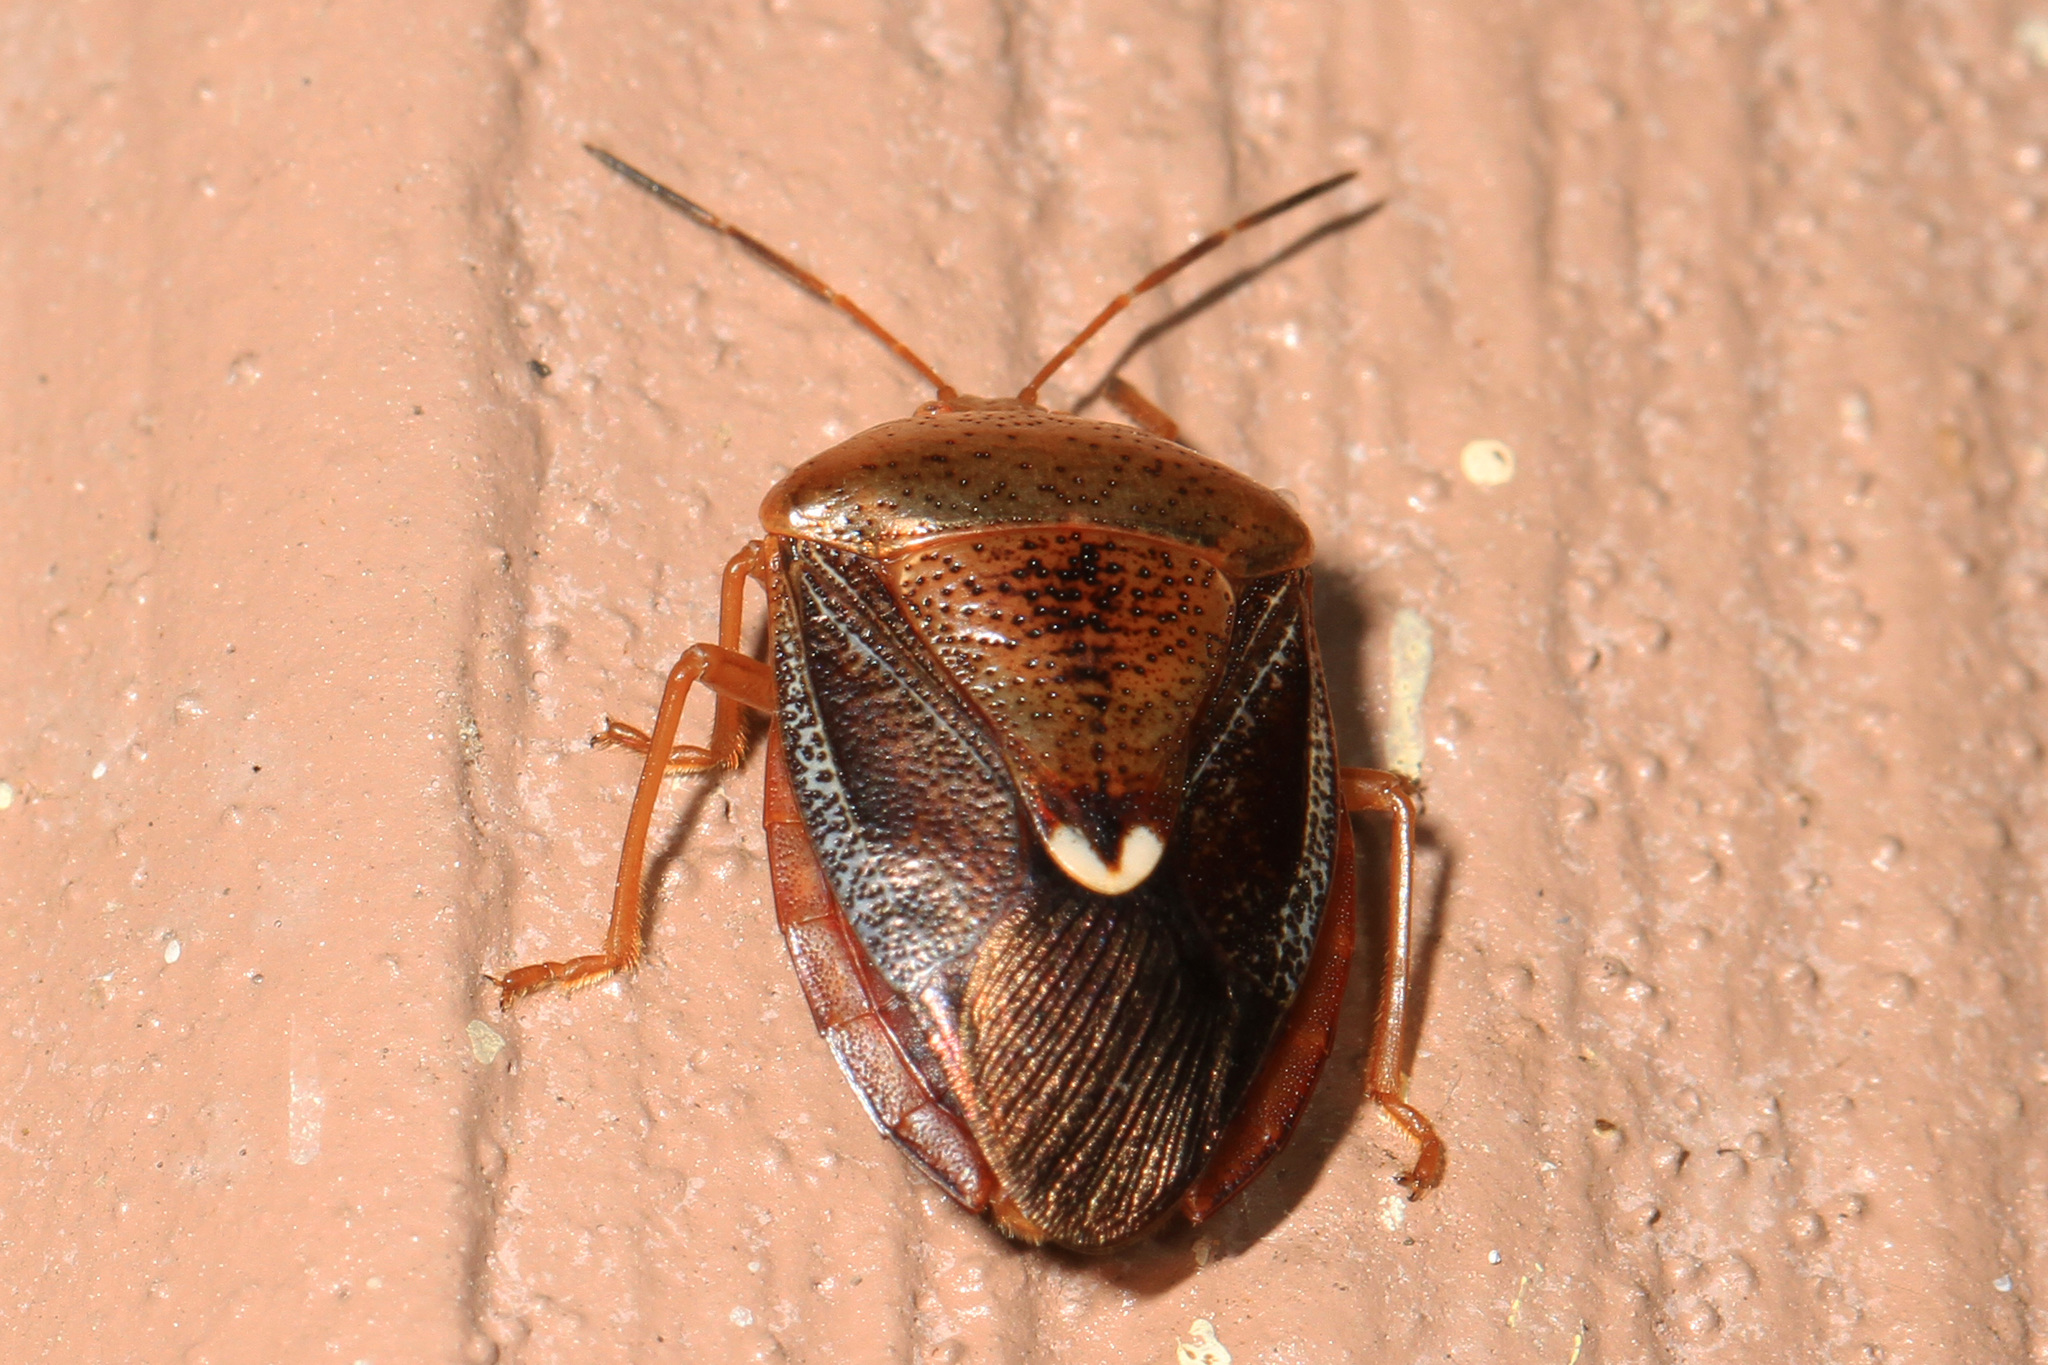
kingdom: Animalia
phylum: Arthropoda
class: Insecta
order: Hemiptera
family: Pentatomidae
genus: Edessa
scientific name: Edessa bifida
